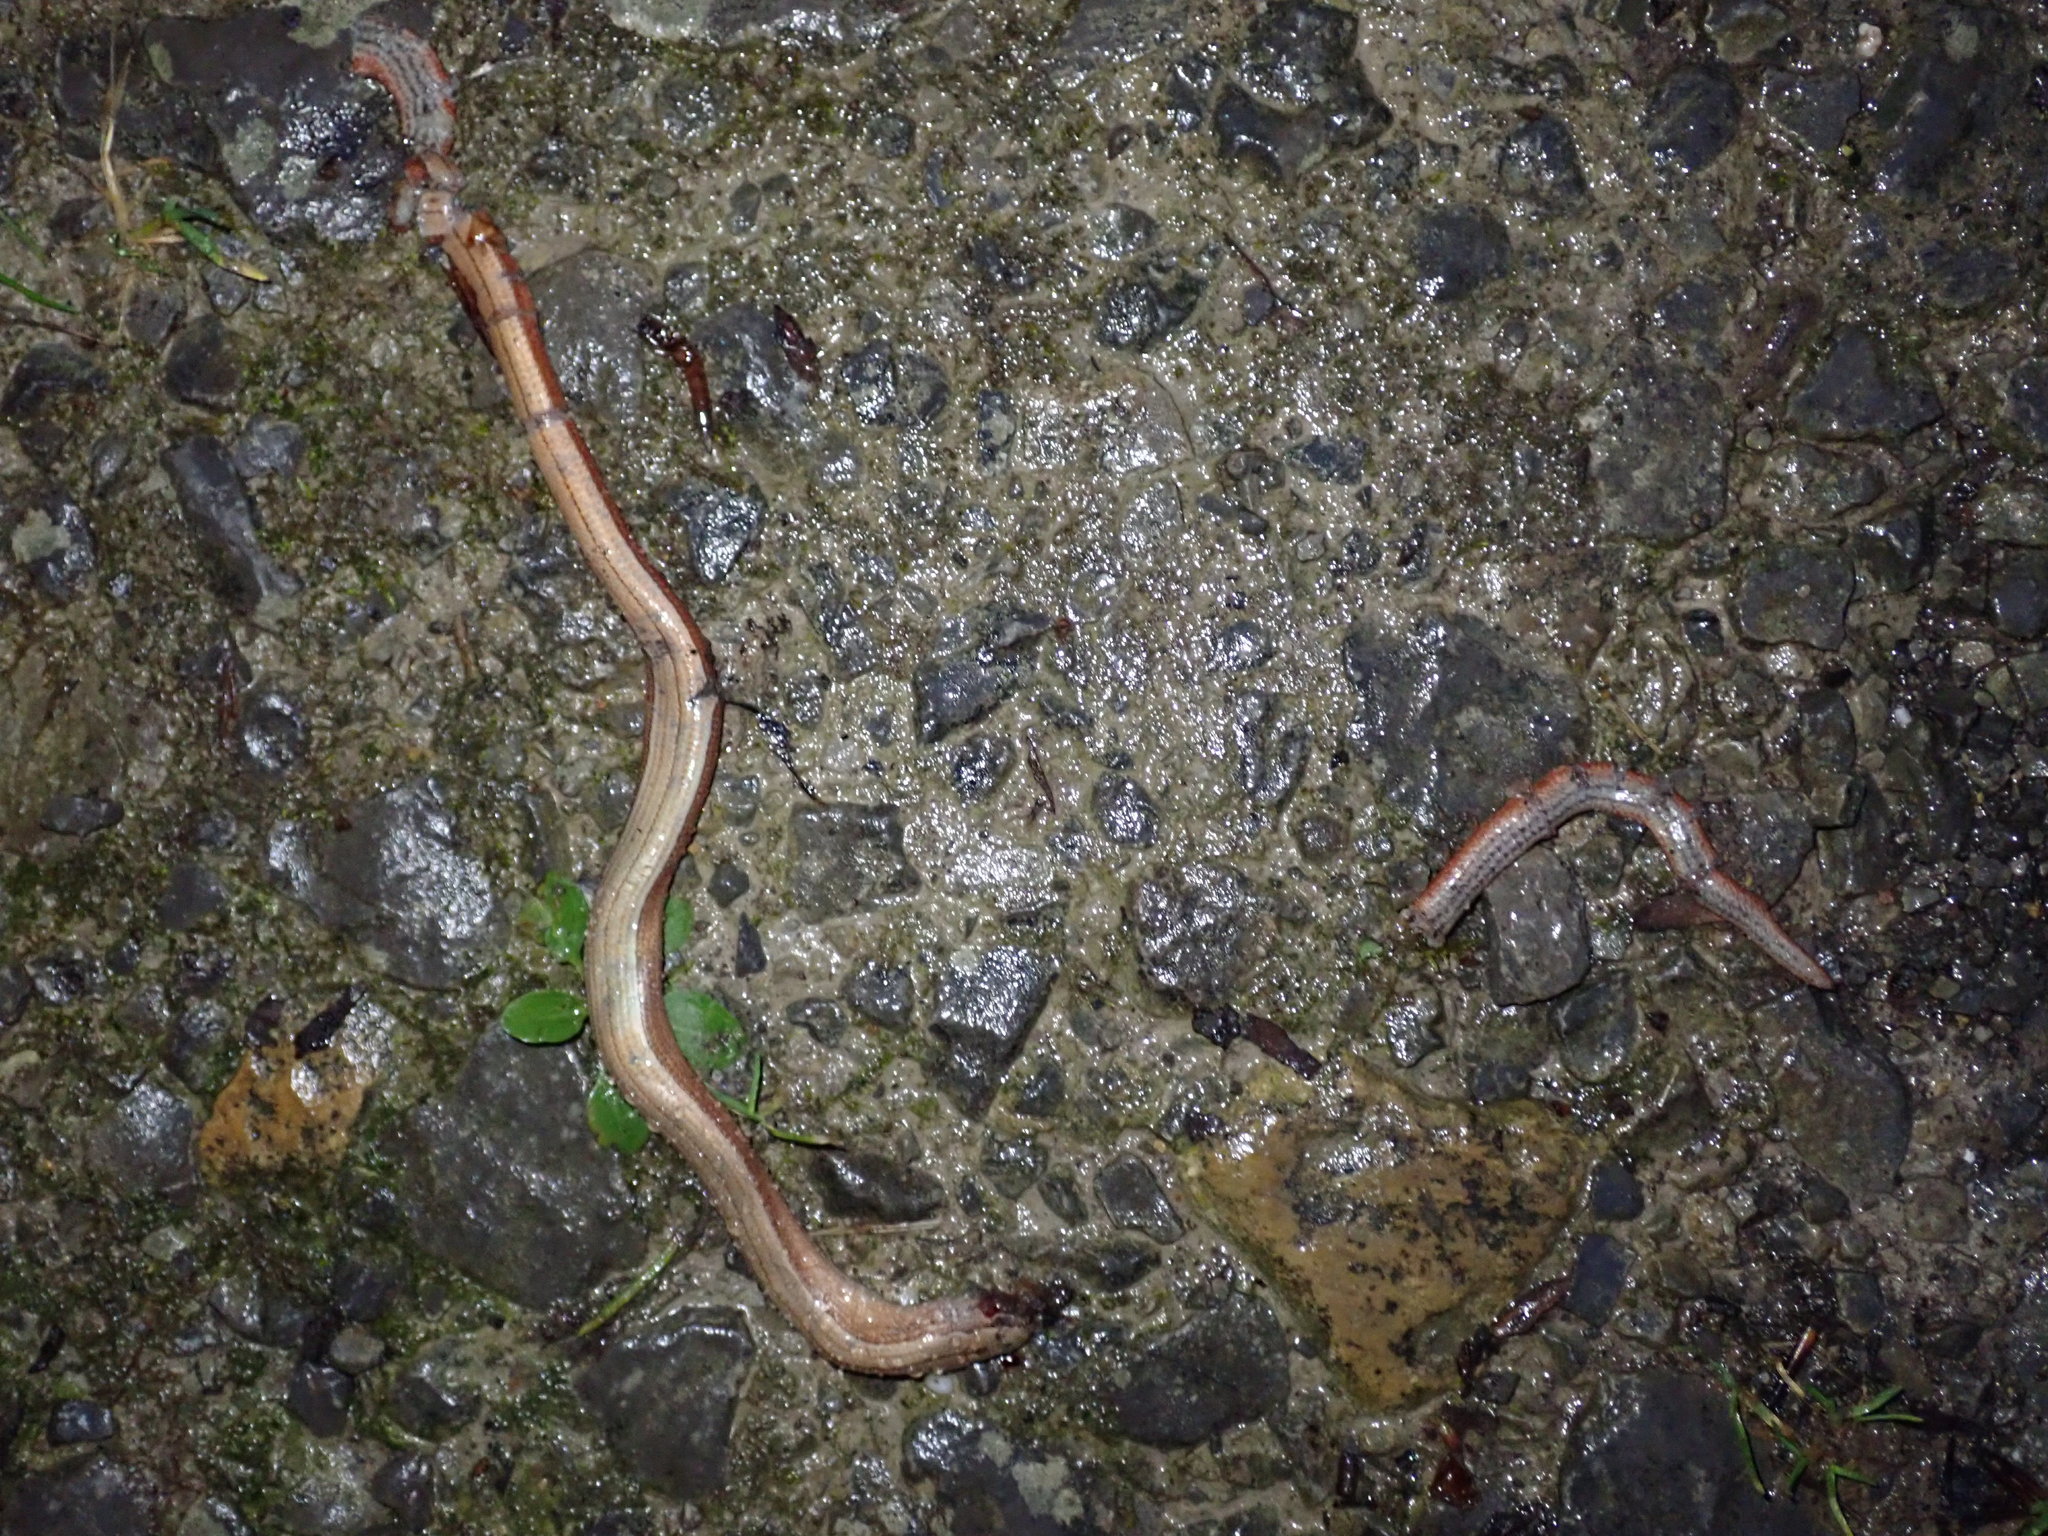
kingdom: Animalia
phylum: Chordata
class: Squamata
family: Anguidae
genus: Anguis
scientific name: Anguis fragilis
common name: Slow worm
